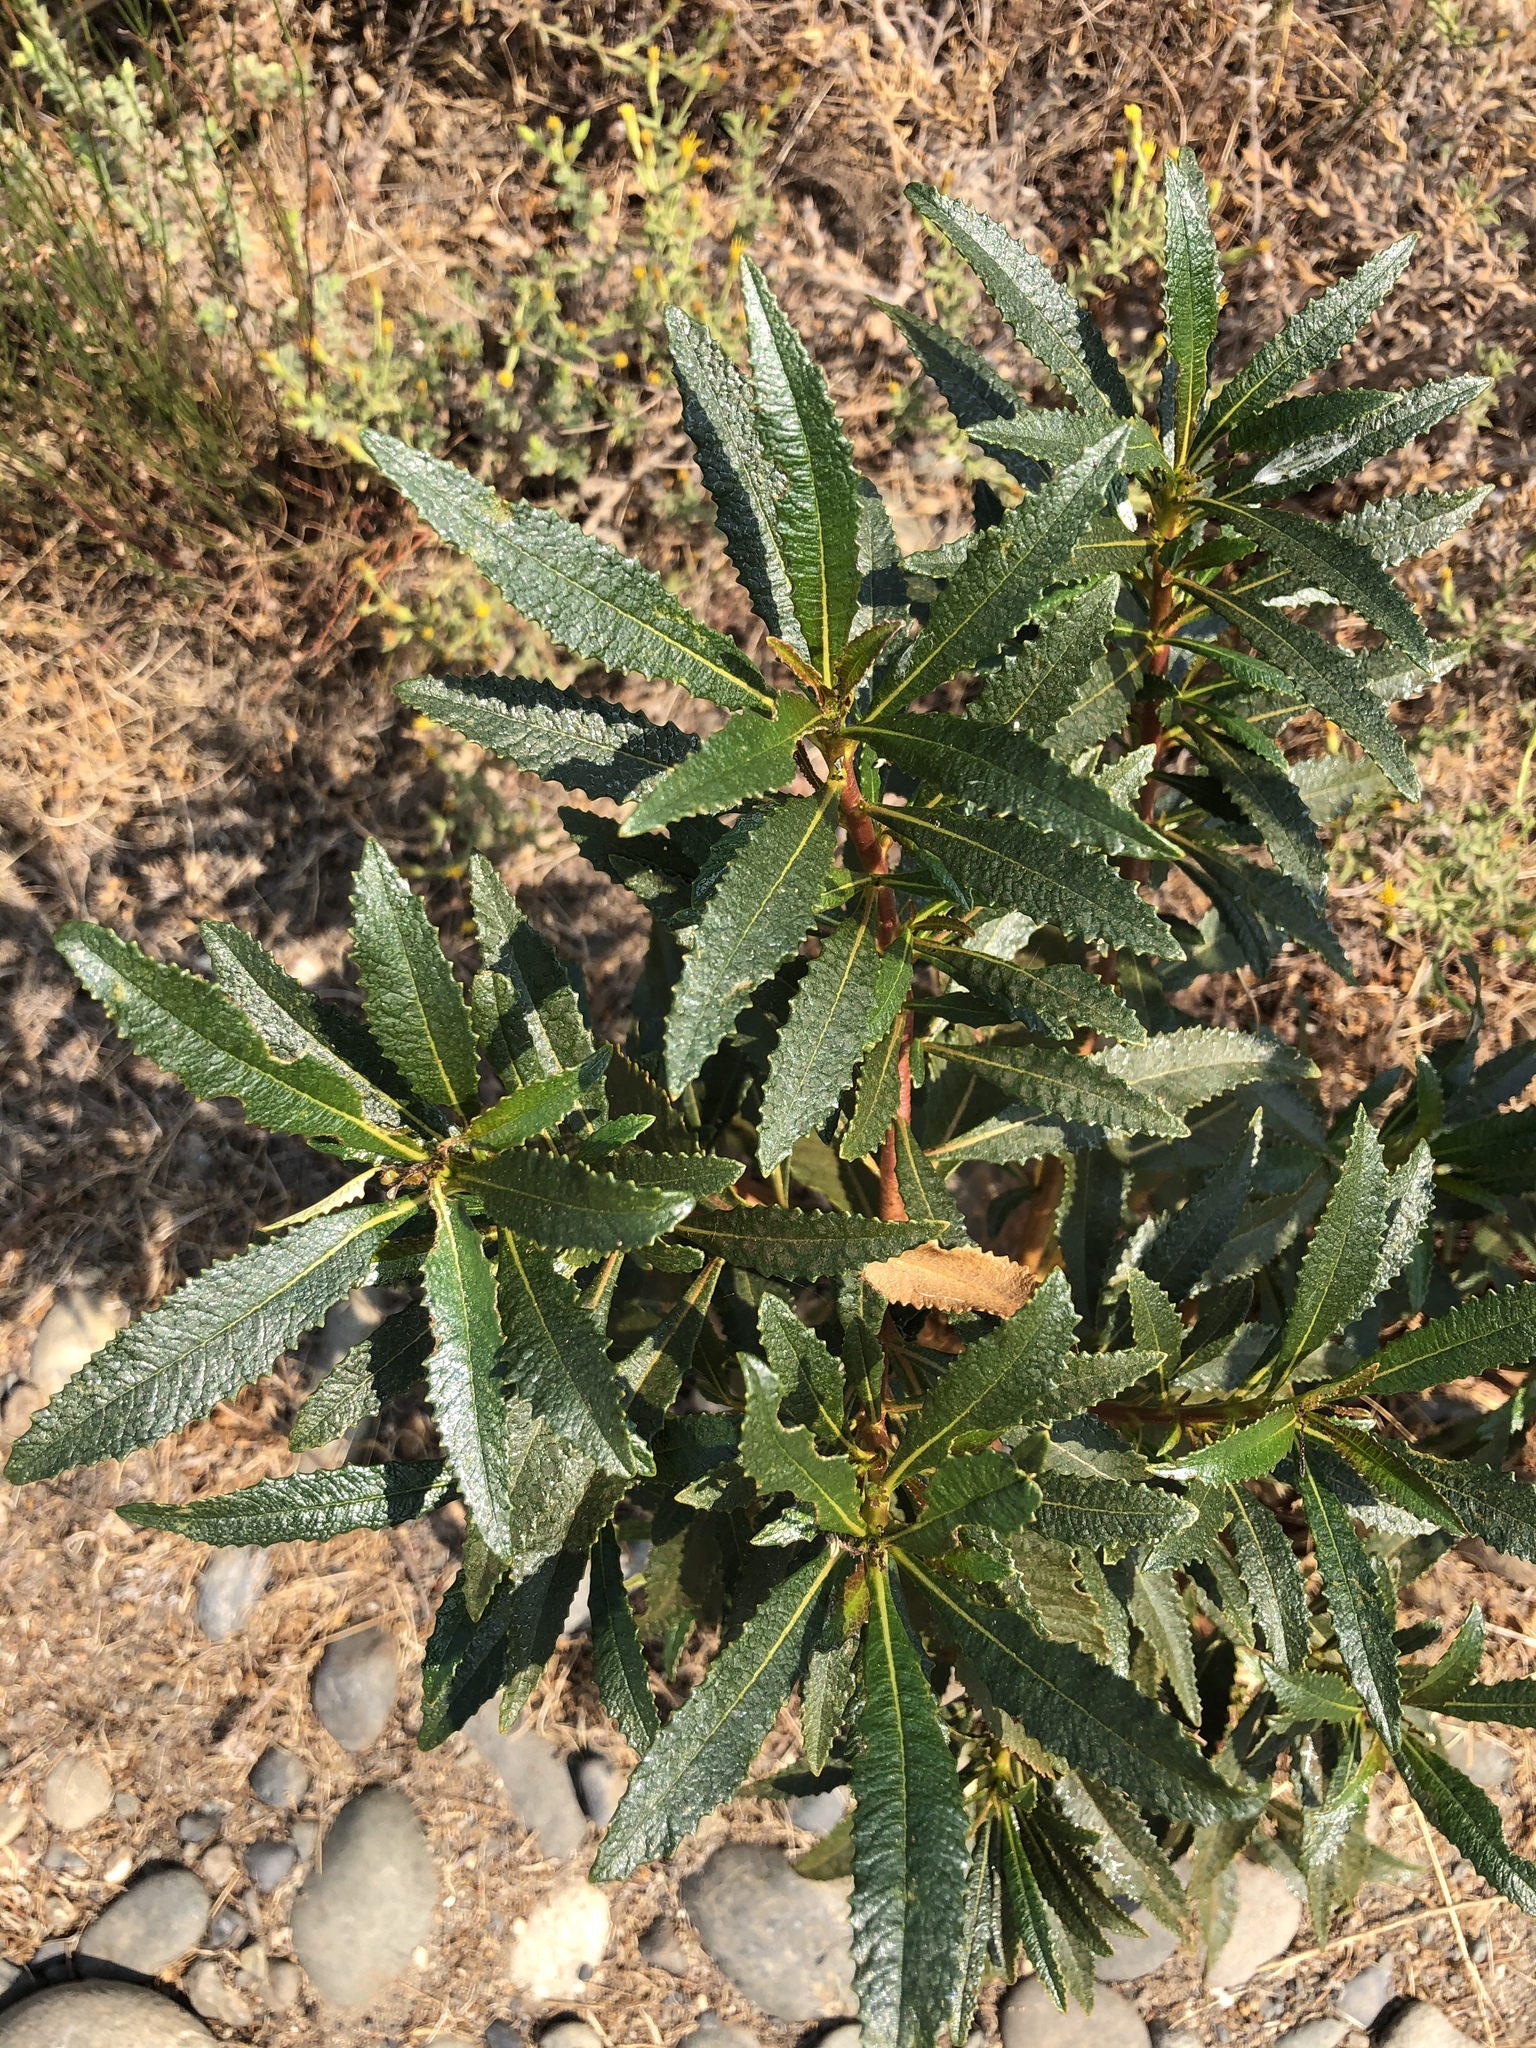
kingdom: Plantae
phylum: Tracheophyta
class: Magnoliopsida
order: Boraginales
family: Namaceae
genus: Eriodictyon
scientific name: Eriodictyon californicum
